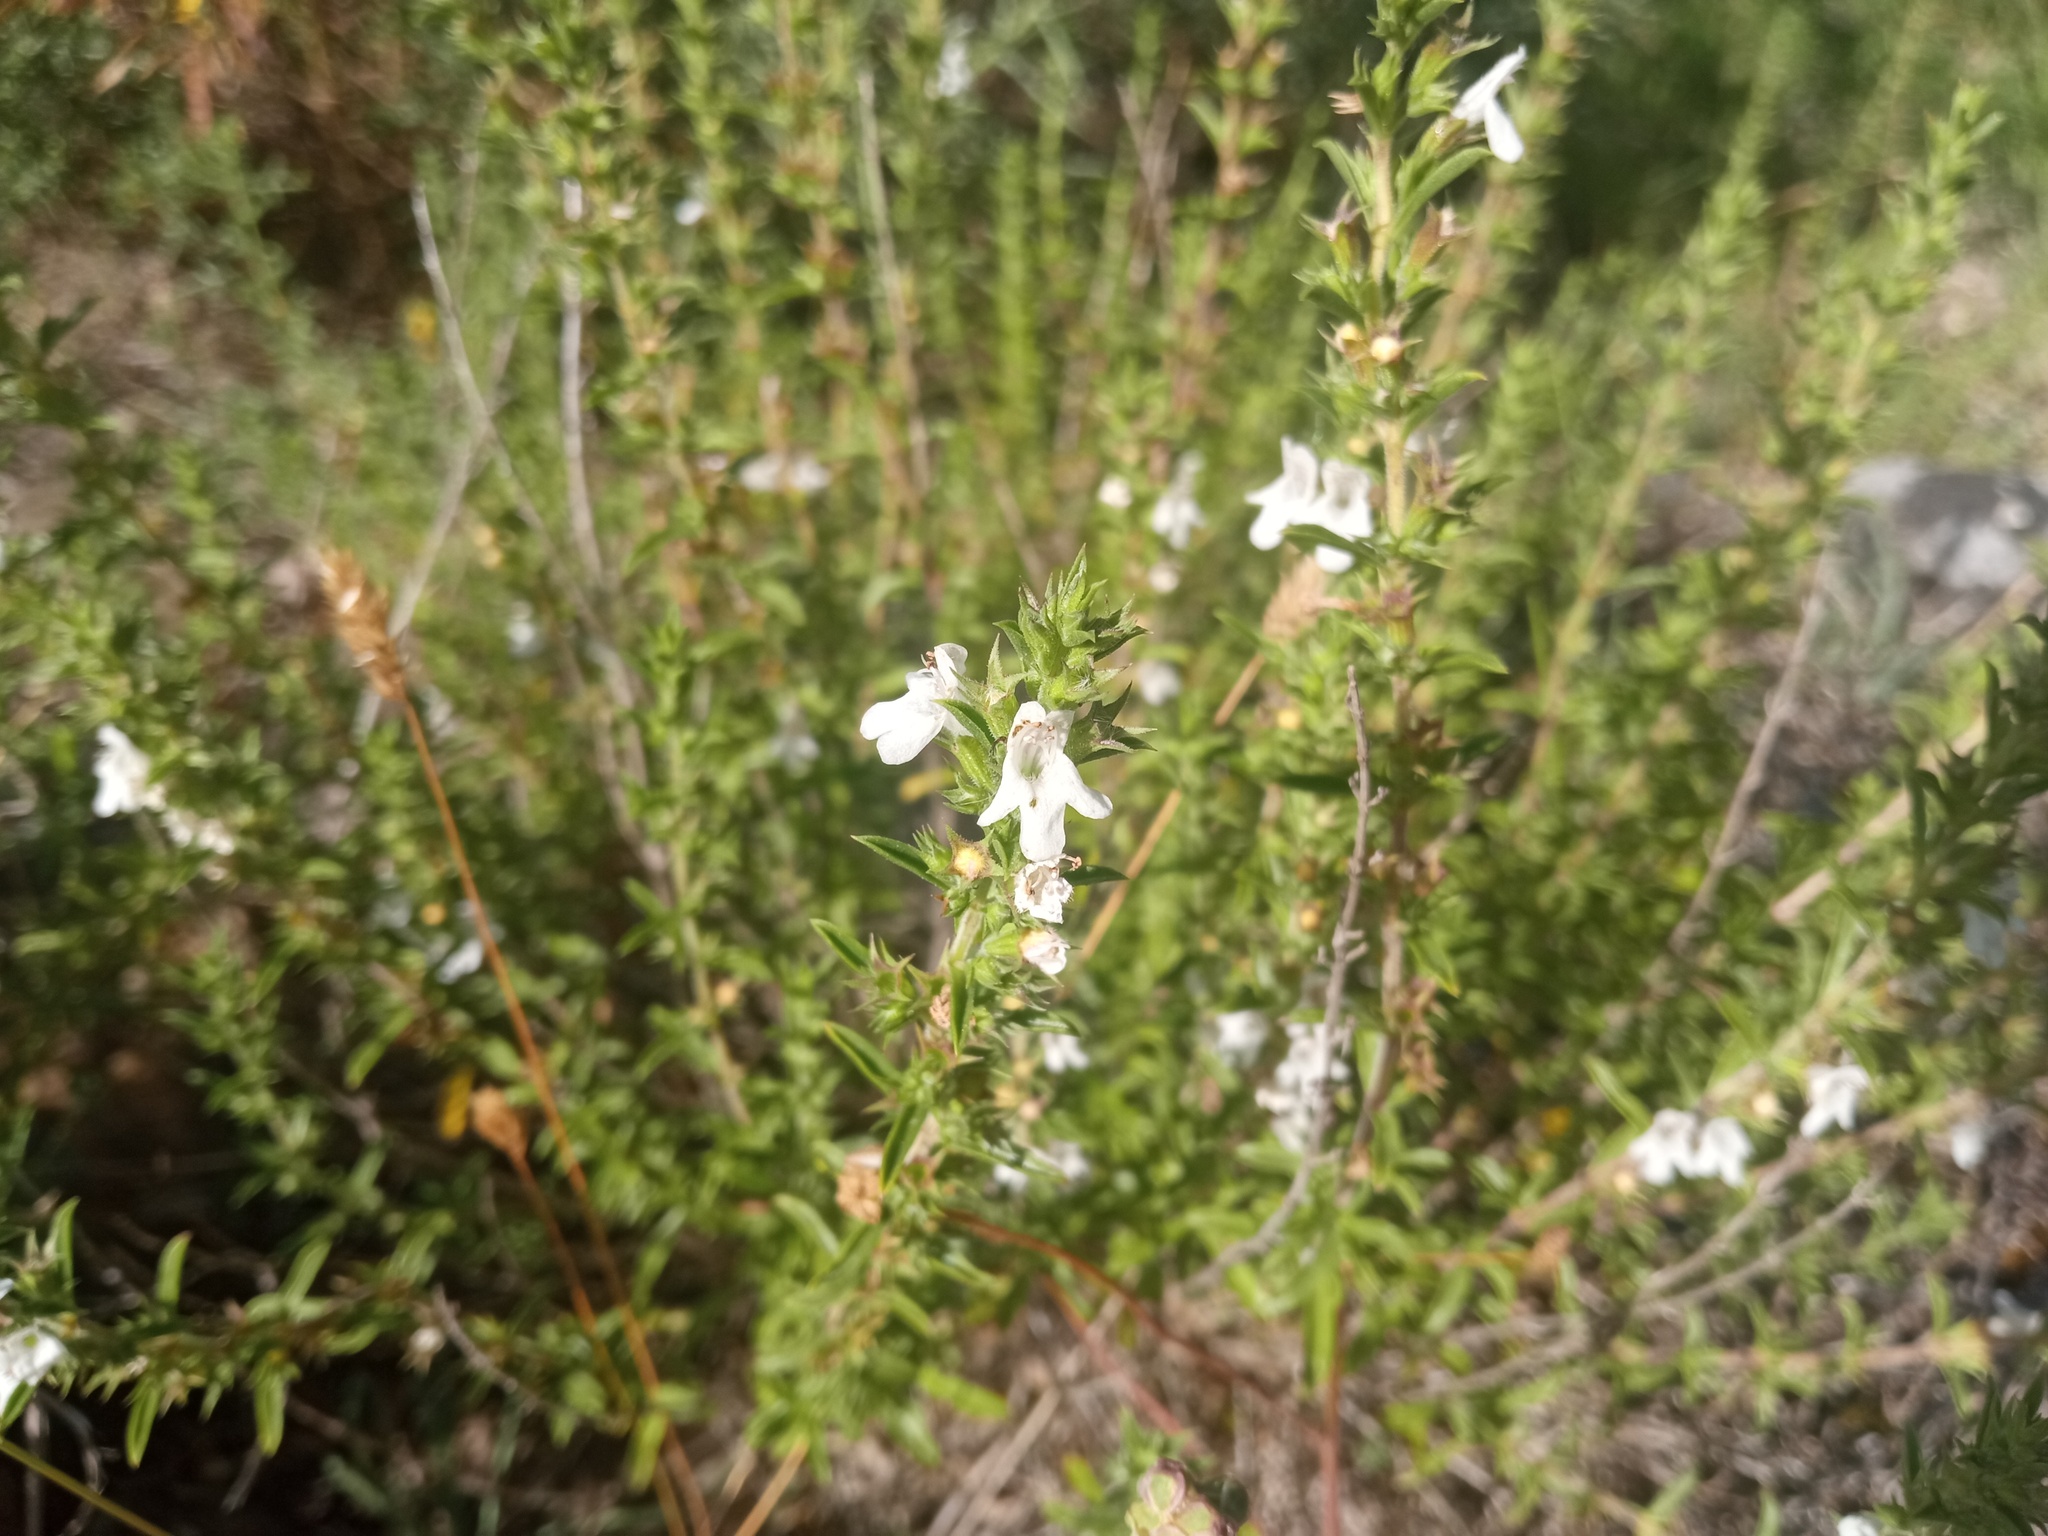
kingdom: Plantae
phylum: Tracheophyta
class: Magnoliopsida
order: Lamiales
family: Lamiaceae
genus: Satureja
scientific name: Satureja montana
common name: Winter savory
